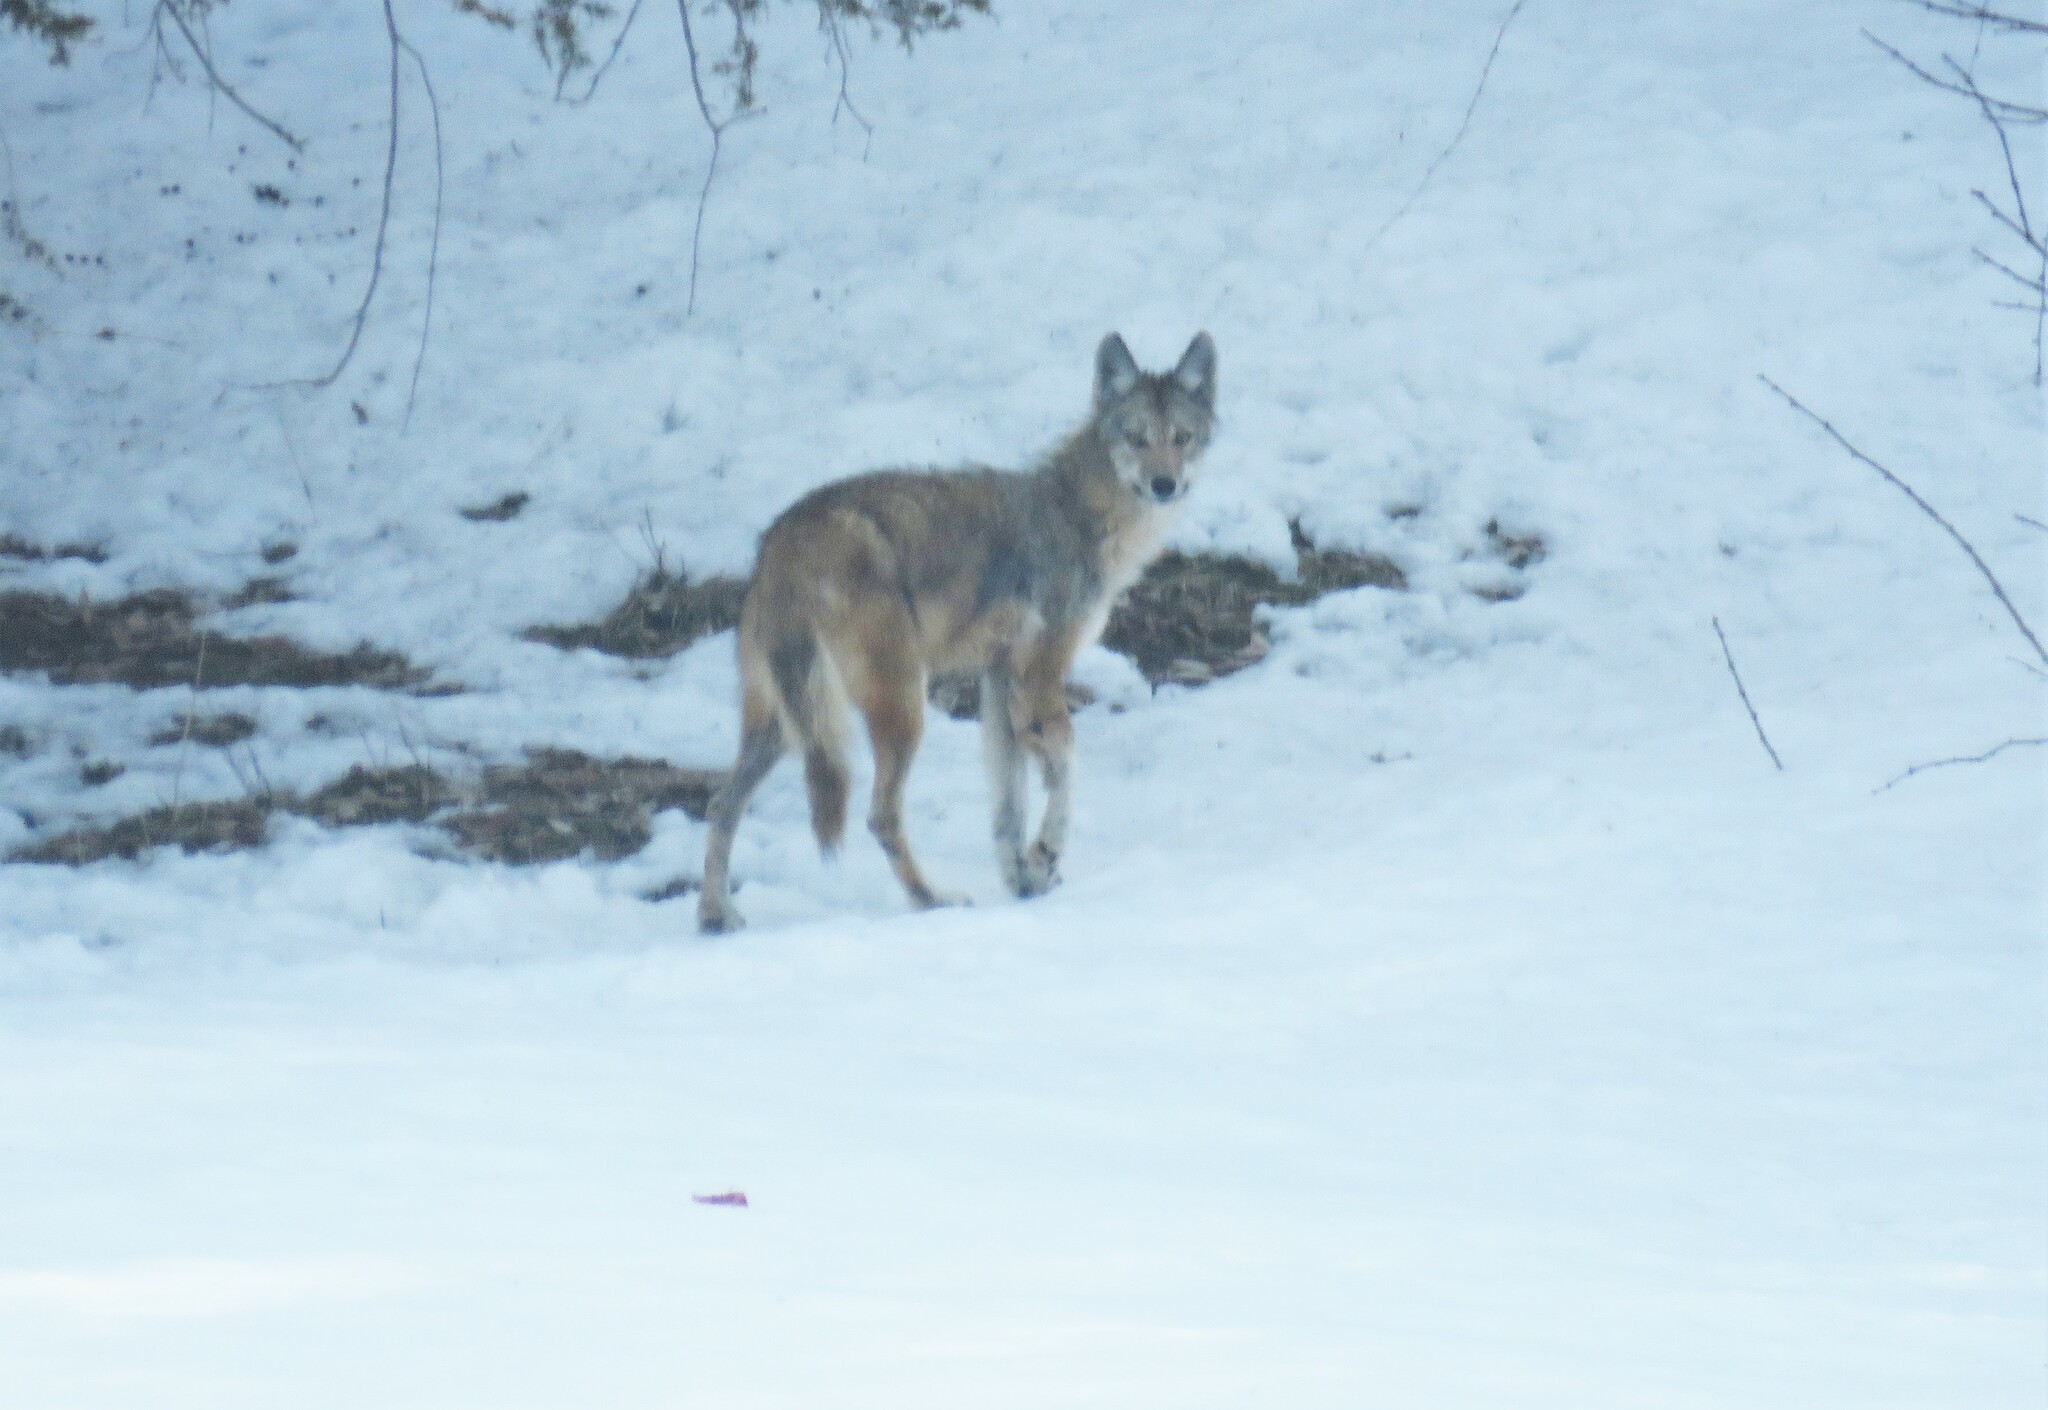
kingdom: Animalia
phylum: Chordata
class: Mammalia
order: Carnivora
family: Canidae
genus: Canis
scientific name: Canis latrans
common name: Coyote
